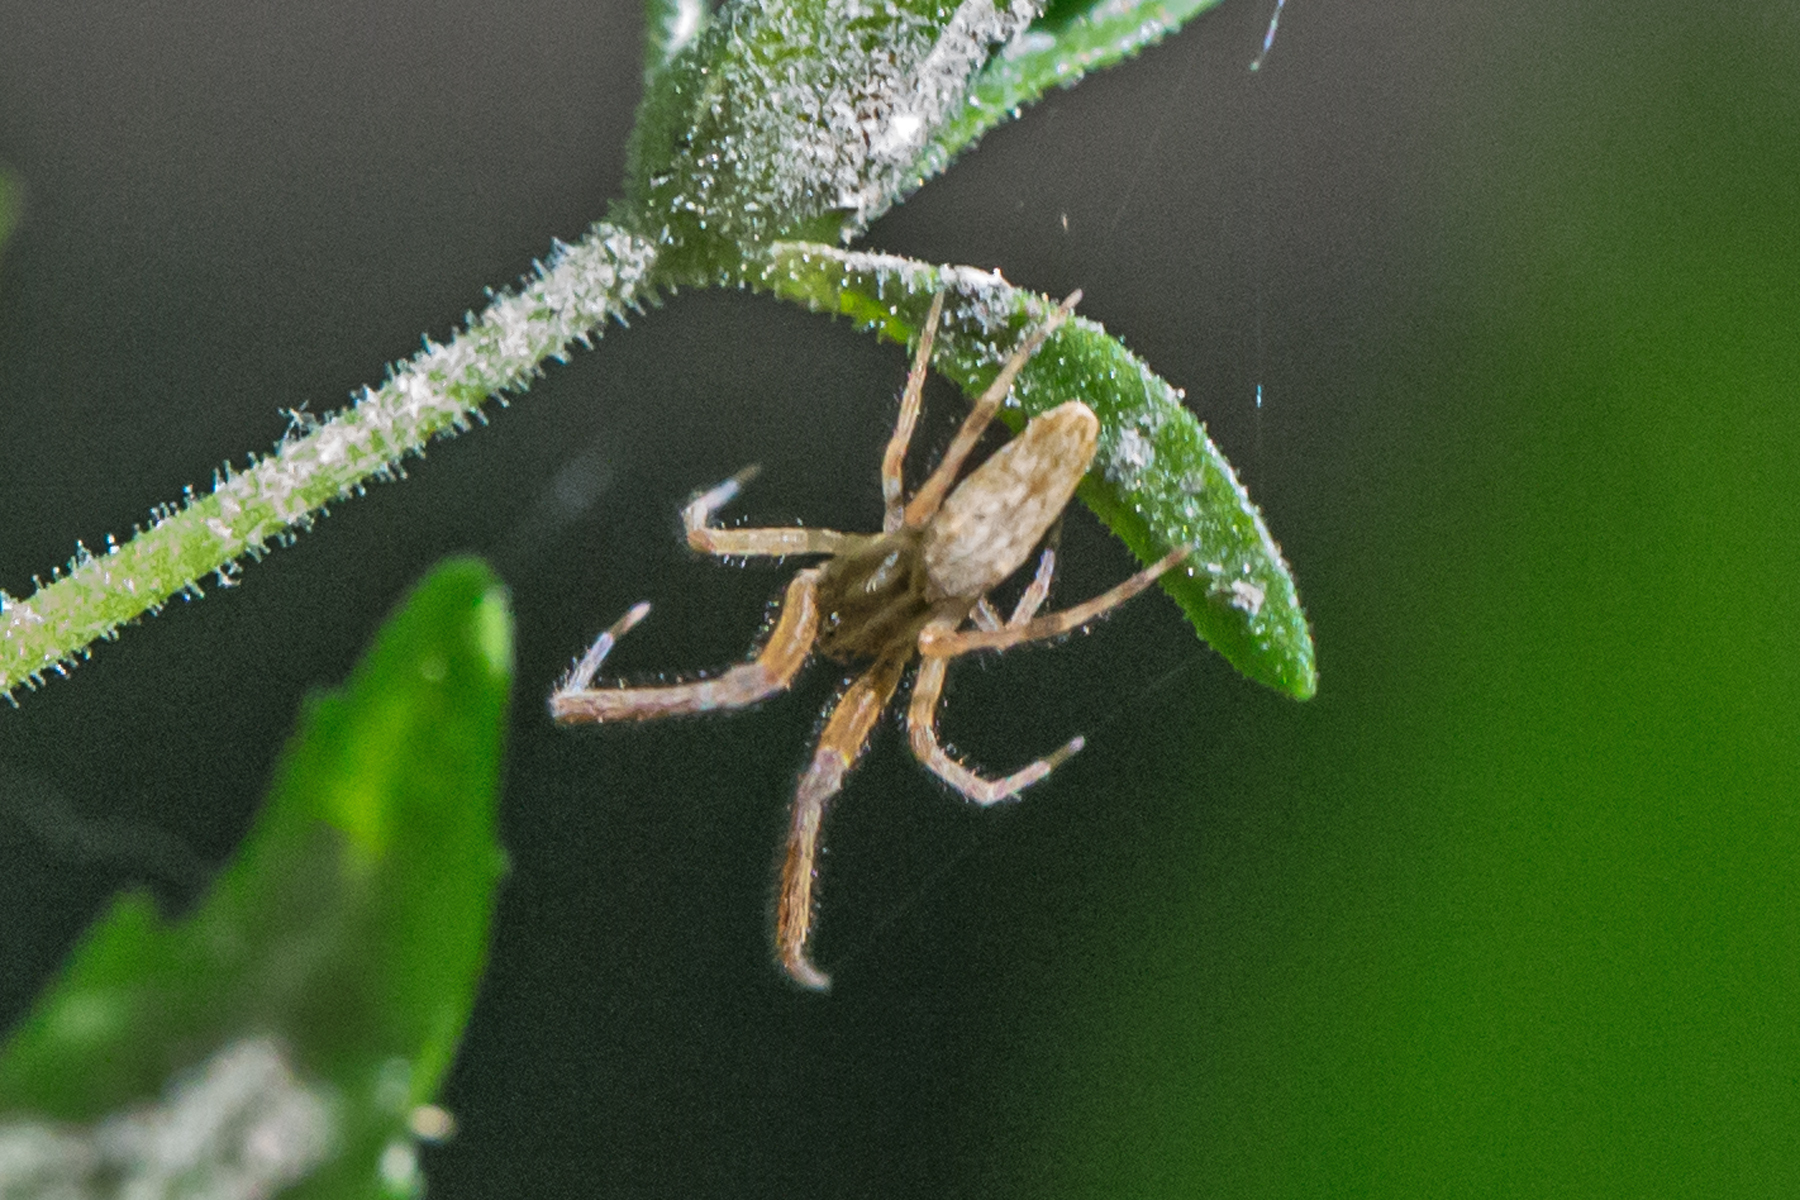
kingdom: Animalia
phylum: Arthropoda
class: Arachnida
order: Araneae
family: Uloboridae
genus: Uloborus
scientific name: Uloborus glomosus
